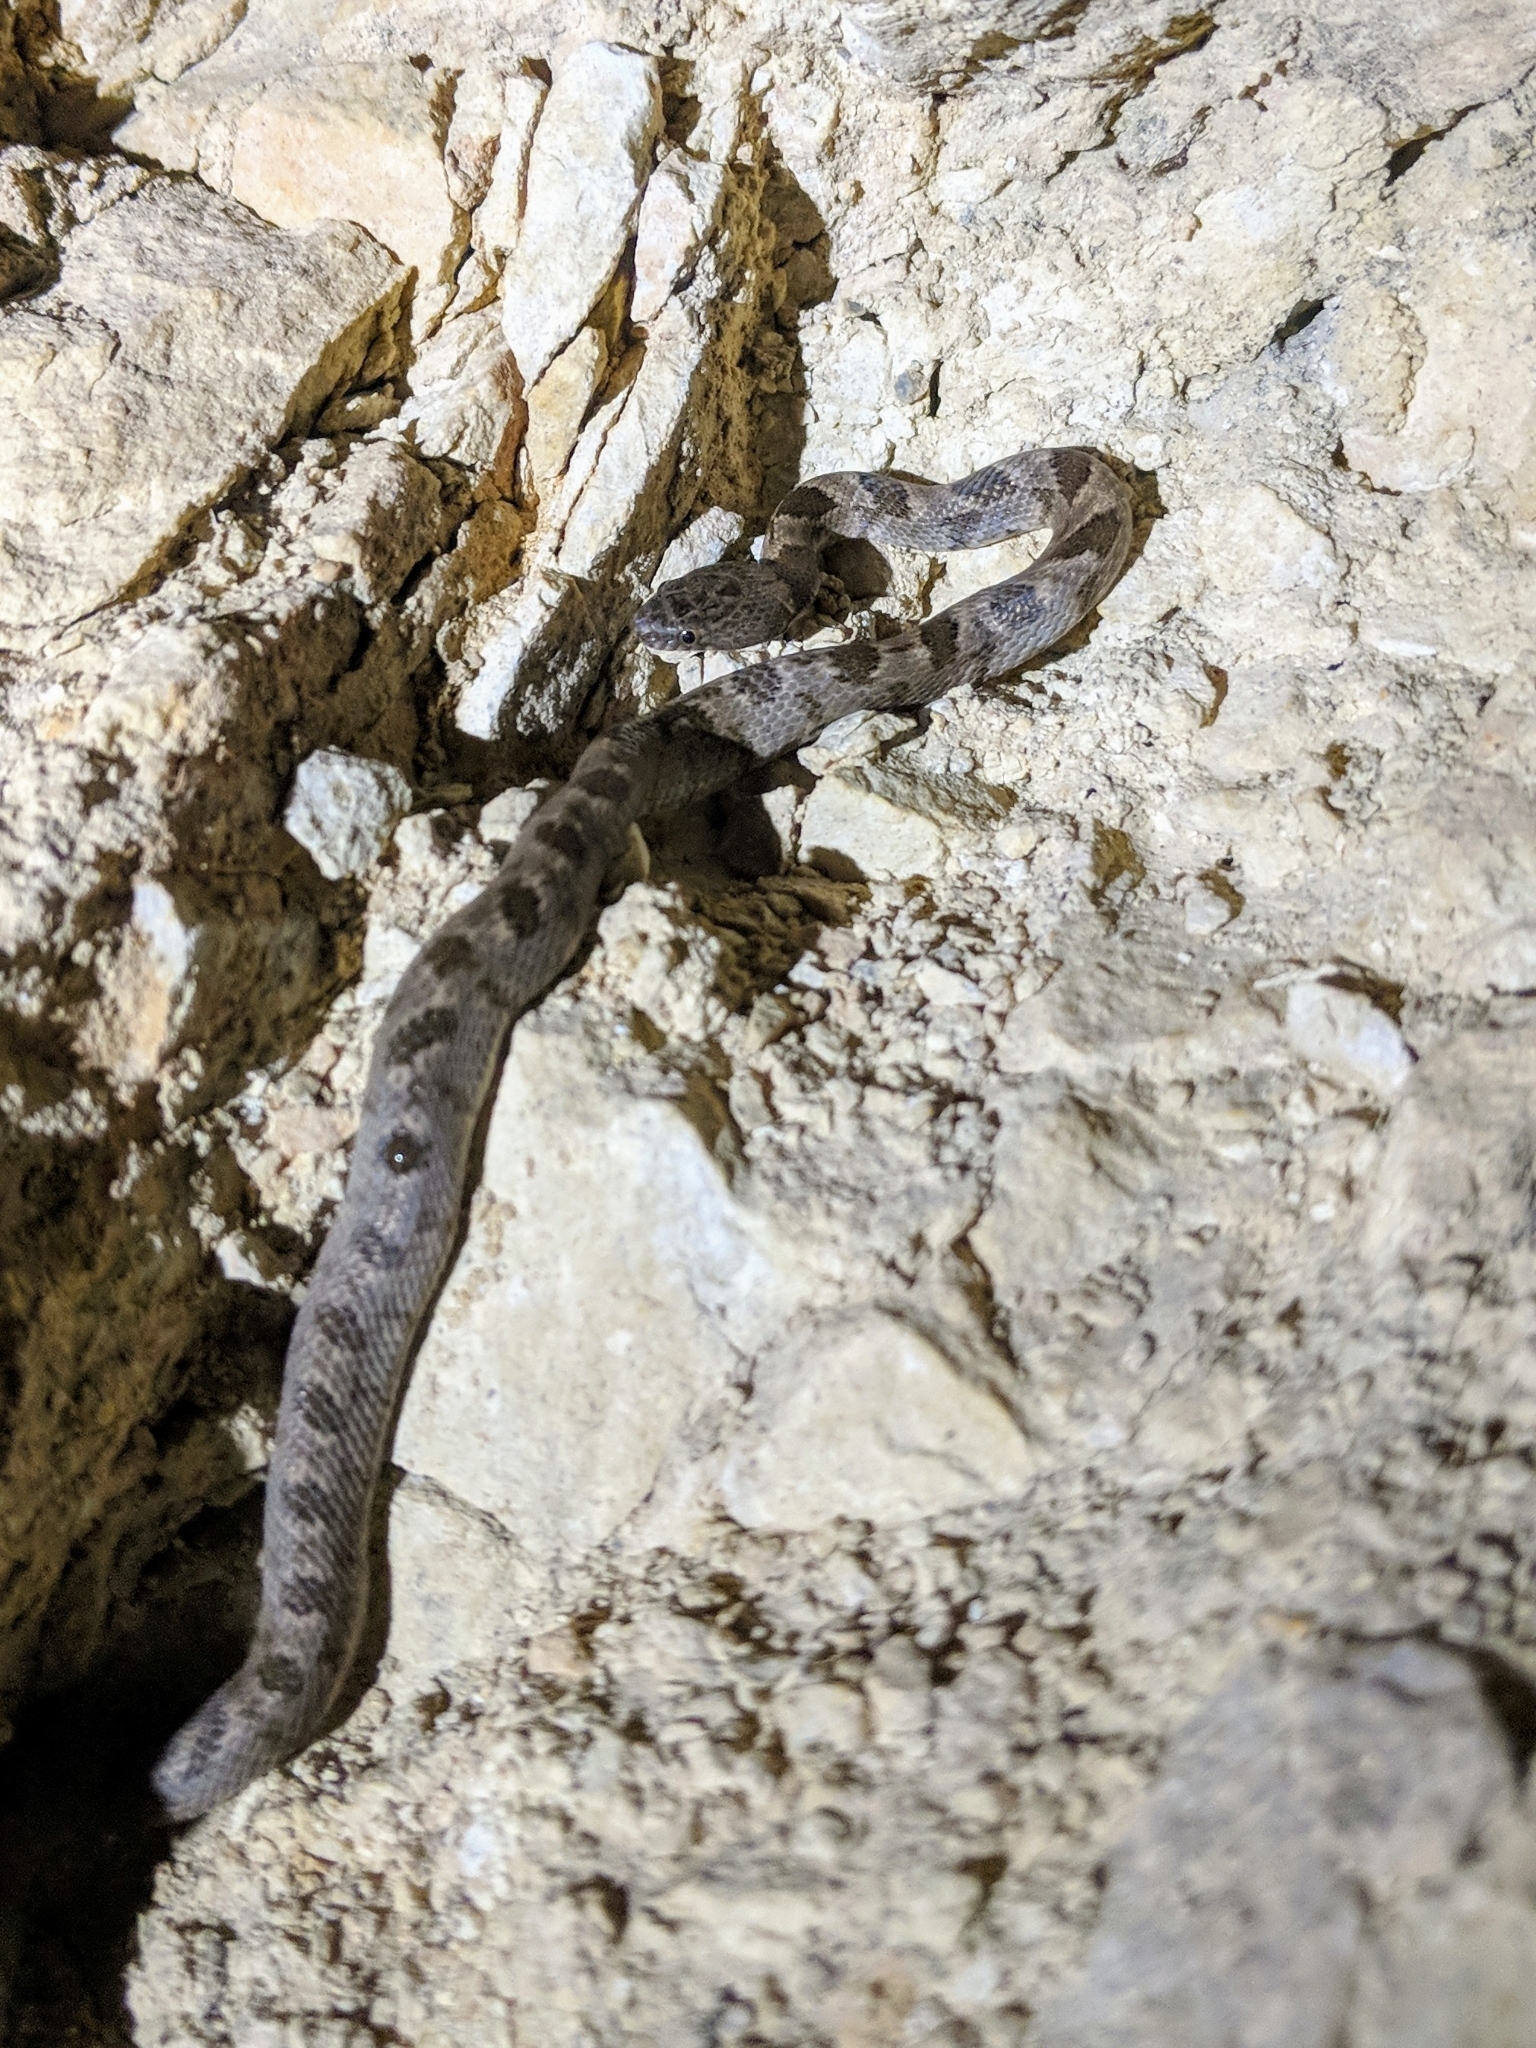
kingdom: Animalia
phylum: Chordata
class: Squamata
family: Colubridae
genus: Telescopus
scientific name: Telescopus fallax
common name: Cat snake
